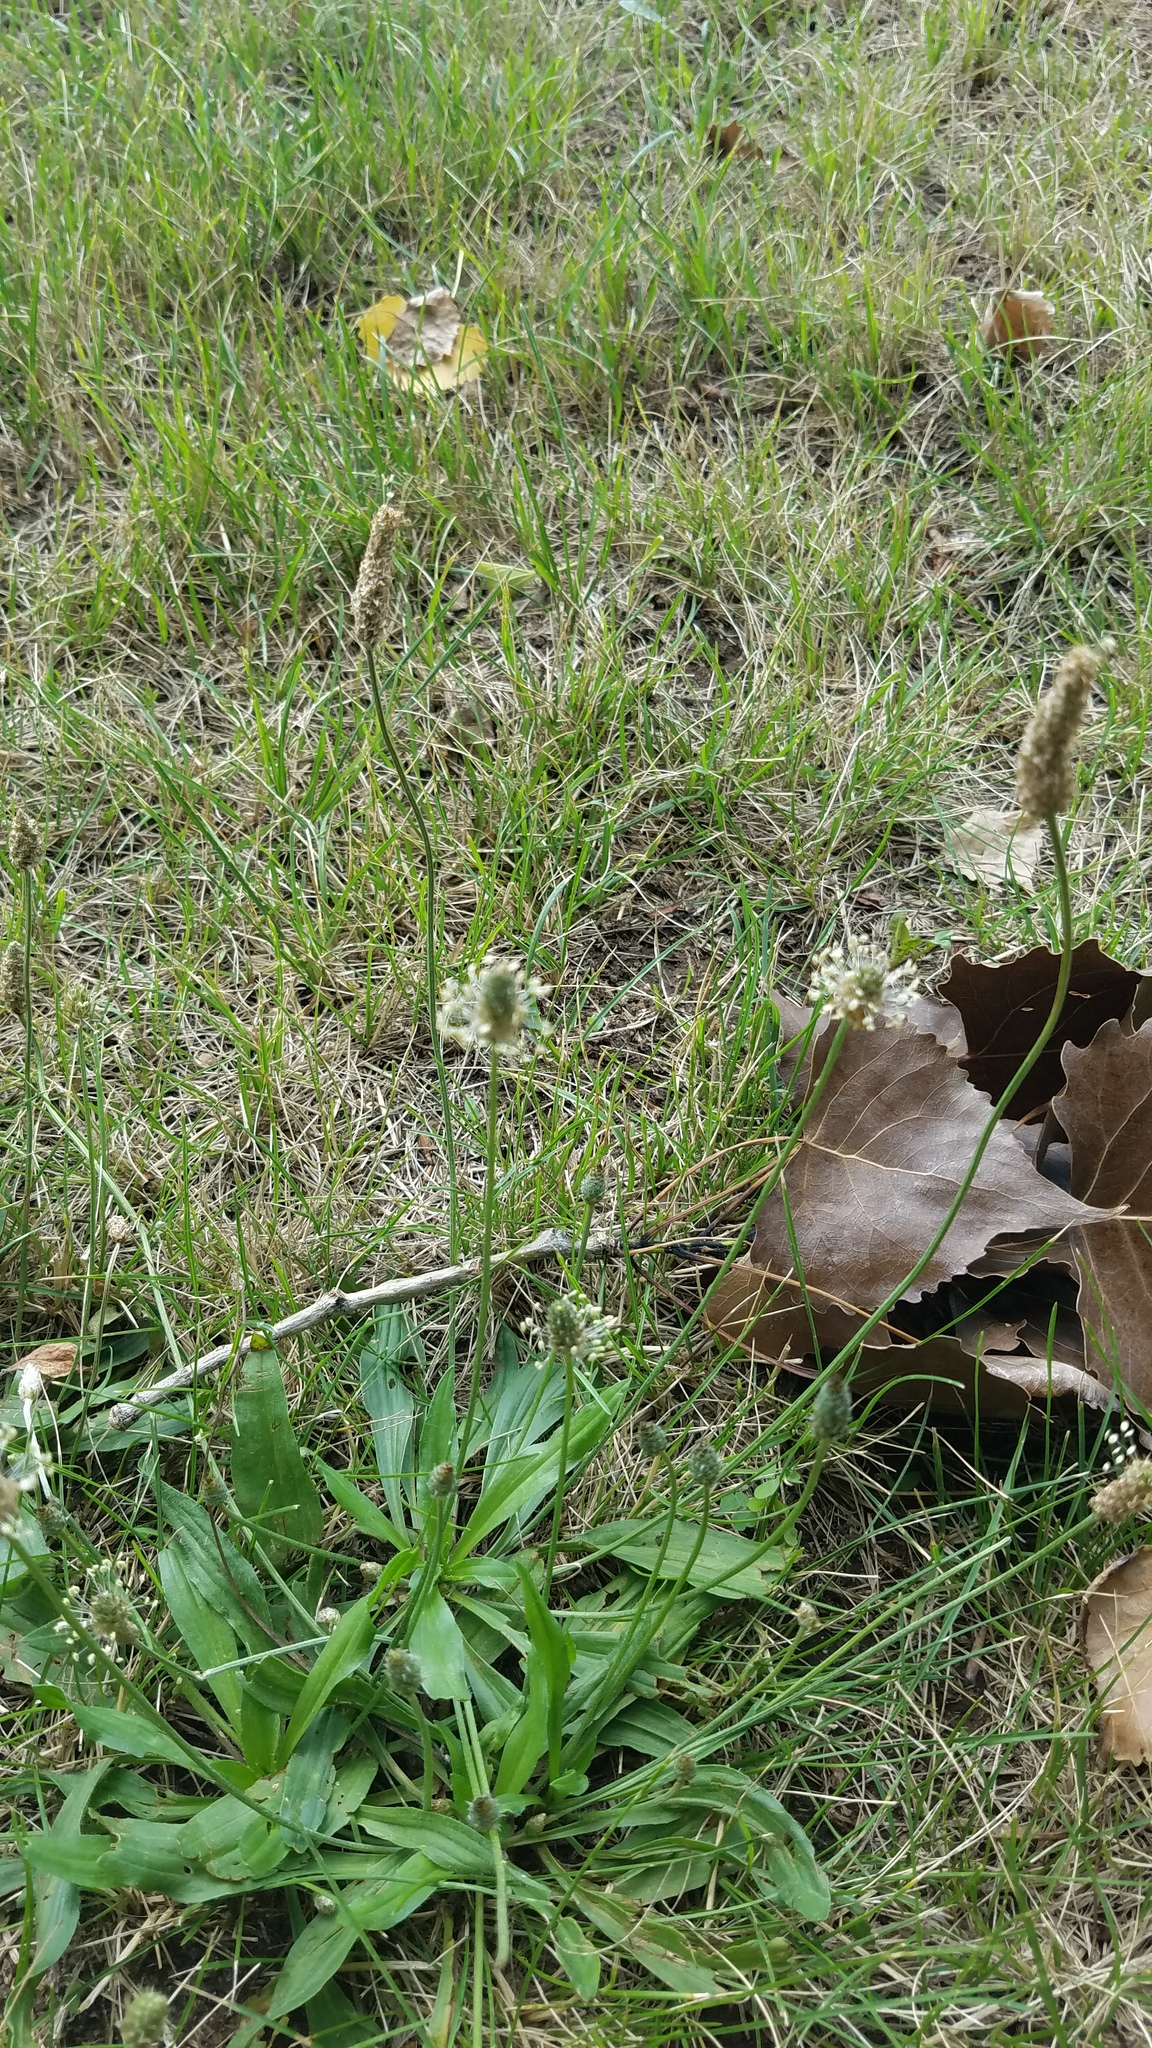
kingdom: Plantae
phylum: Tracheophyta
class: Magnoliopsida
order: Lamiales
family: Plantaginaceae
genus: Plantago
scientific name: Plantago lanceolata
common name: Ribwort plantain
